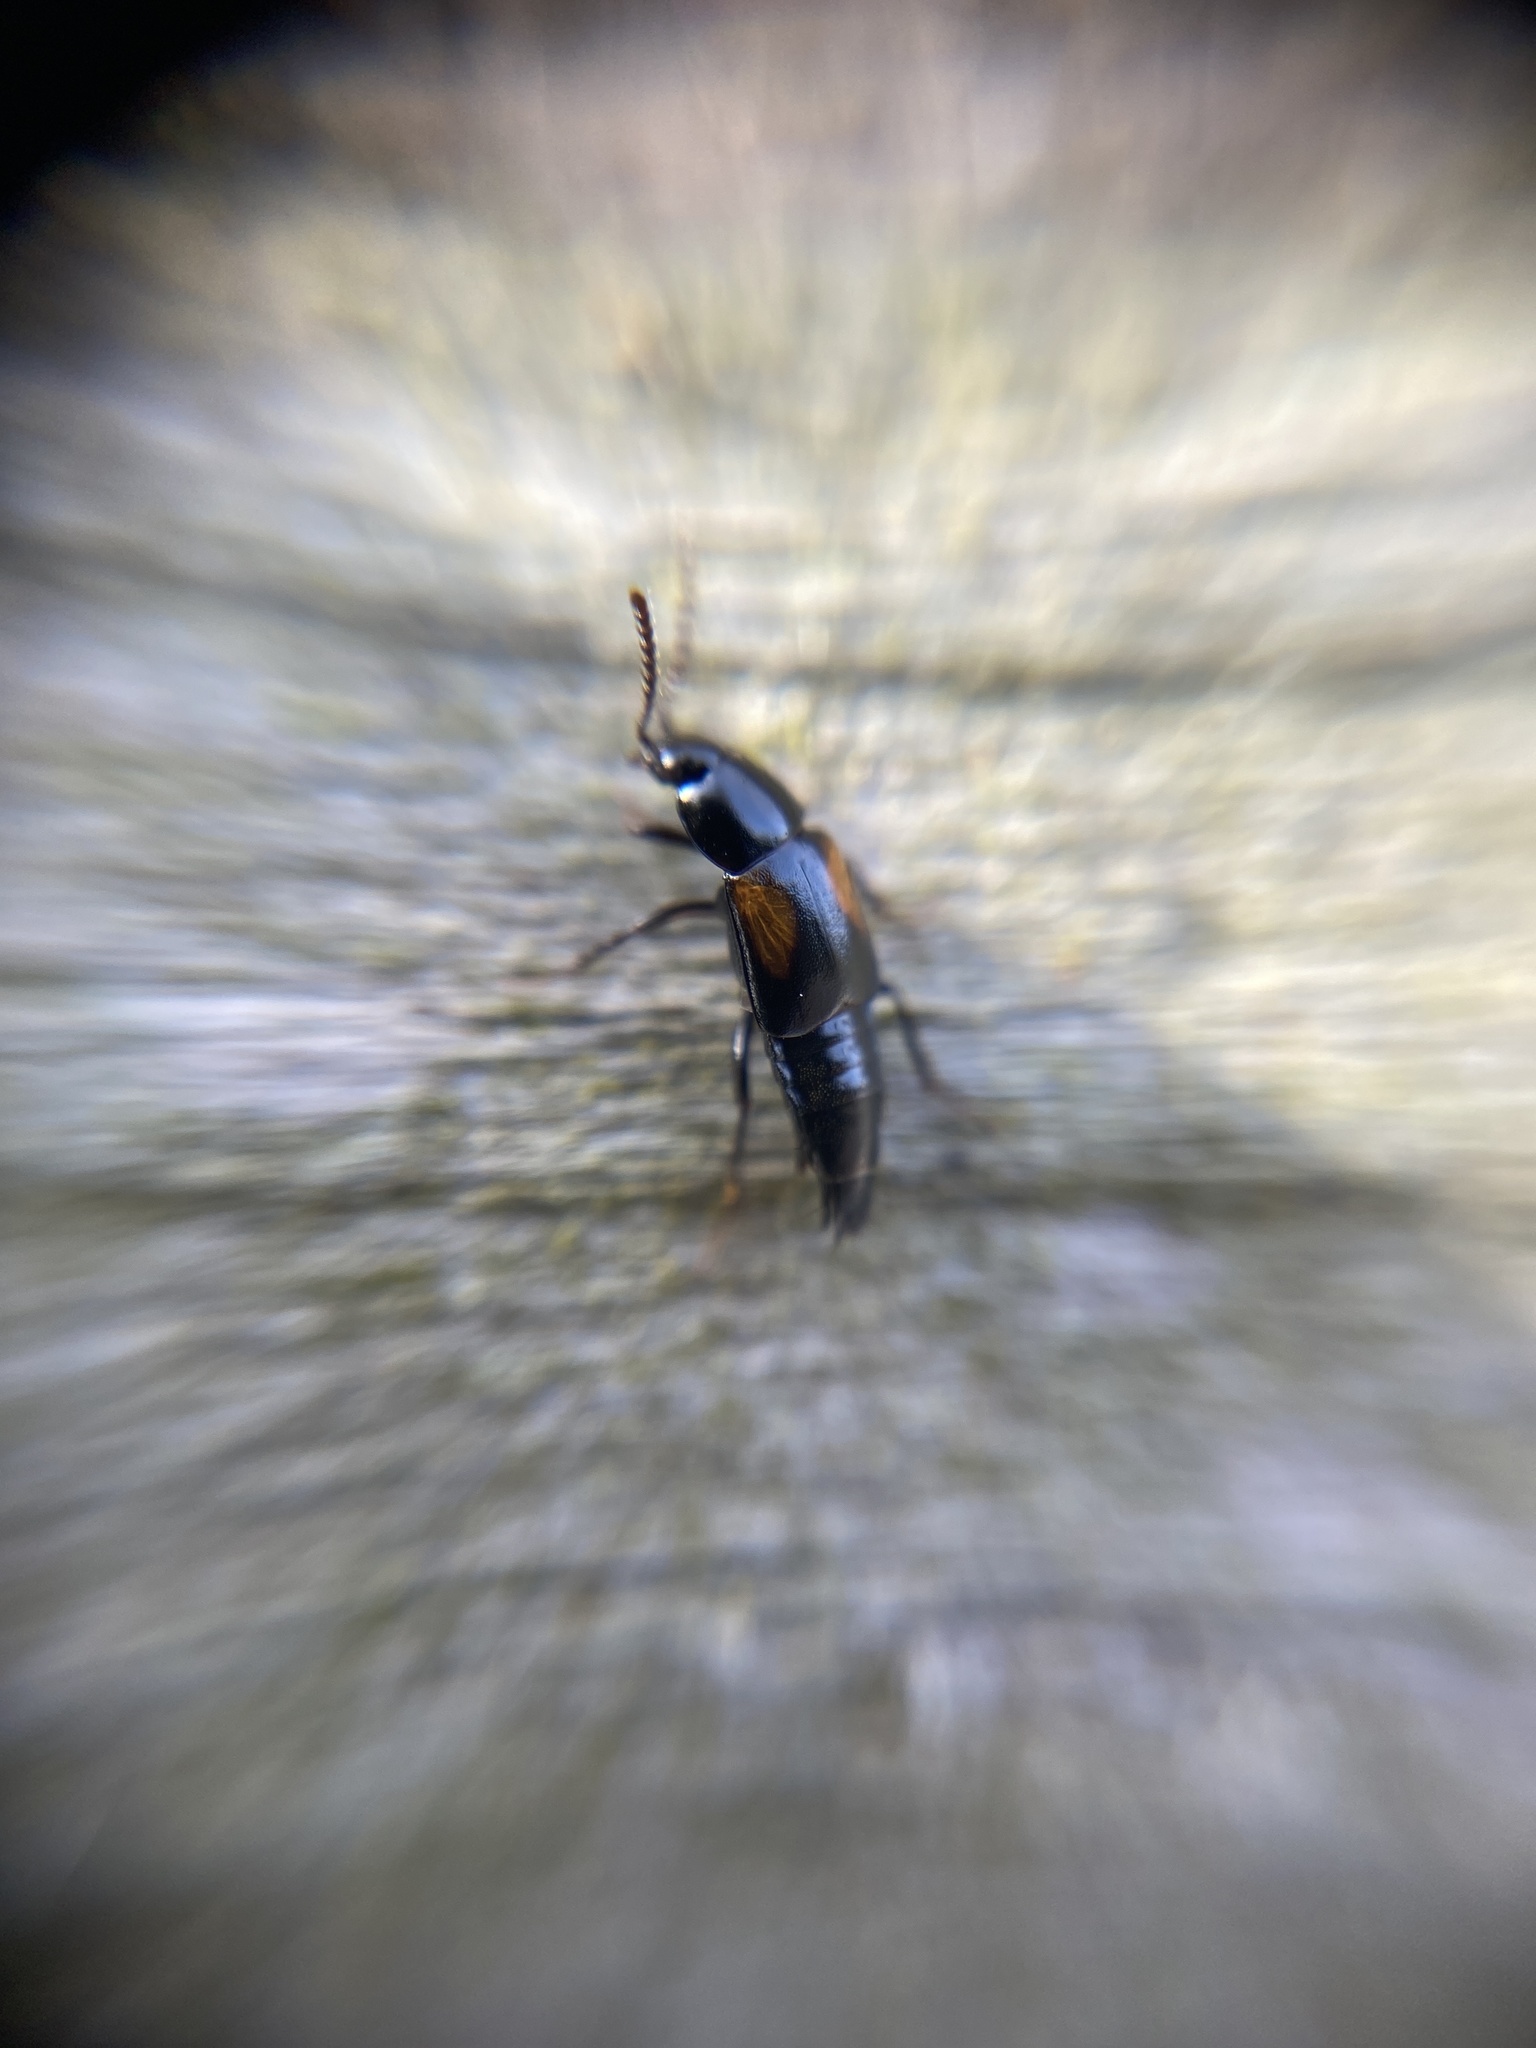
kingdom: Animalia
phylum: Arthropoda
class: Insecta
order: Coleoptera
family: Staphylinidae
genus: Tachinus
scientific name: Tachinus subterraneus
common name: Staph beetle
